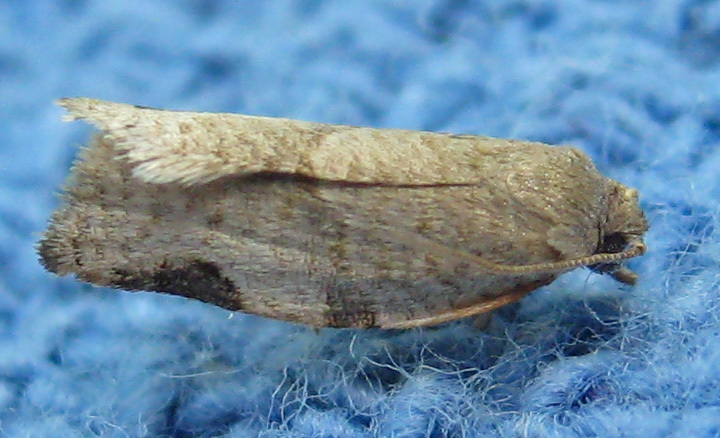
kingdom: Animalia
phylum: Arthropoda
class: Insecta
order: Lepidoptera
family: Tortricidae
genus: Clepsis
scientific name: Clepsis virescana
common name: Greenish apple moth
